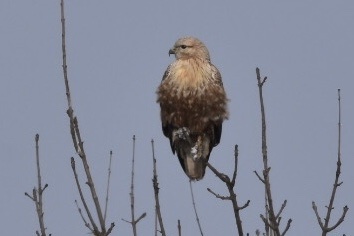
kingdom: Animalia
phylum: Chordata
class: Aves
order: Accipitriformes
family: Accipitridae
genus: Buteo
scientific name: Buteo rufinus
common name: Long-legged buzzard
